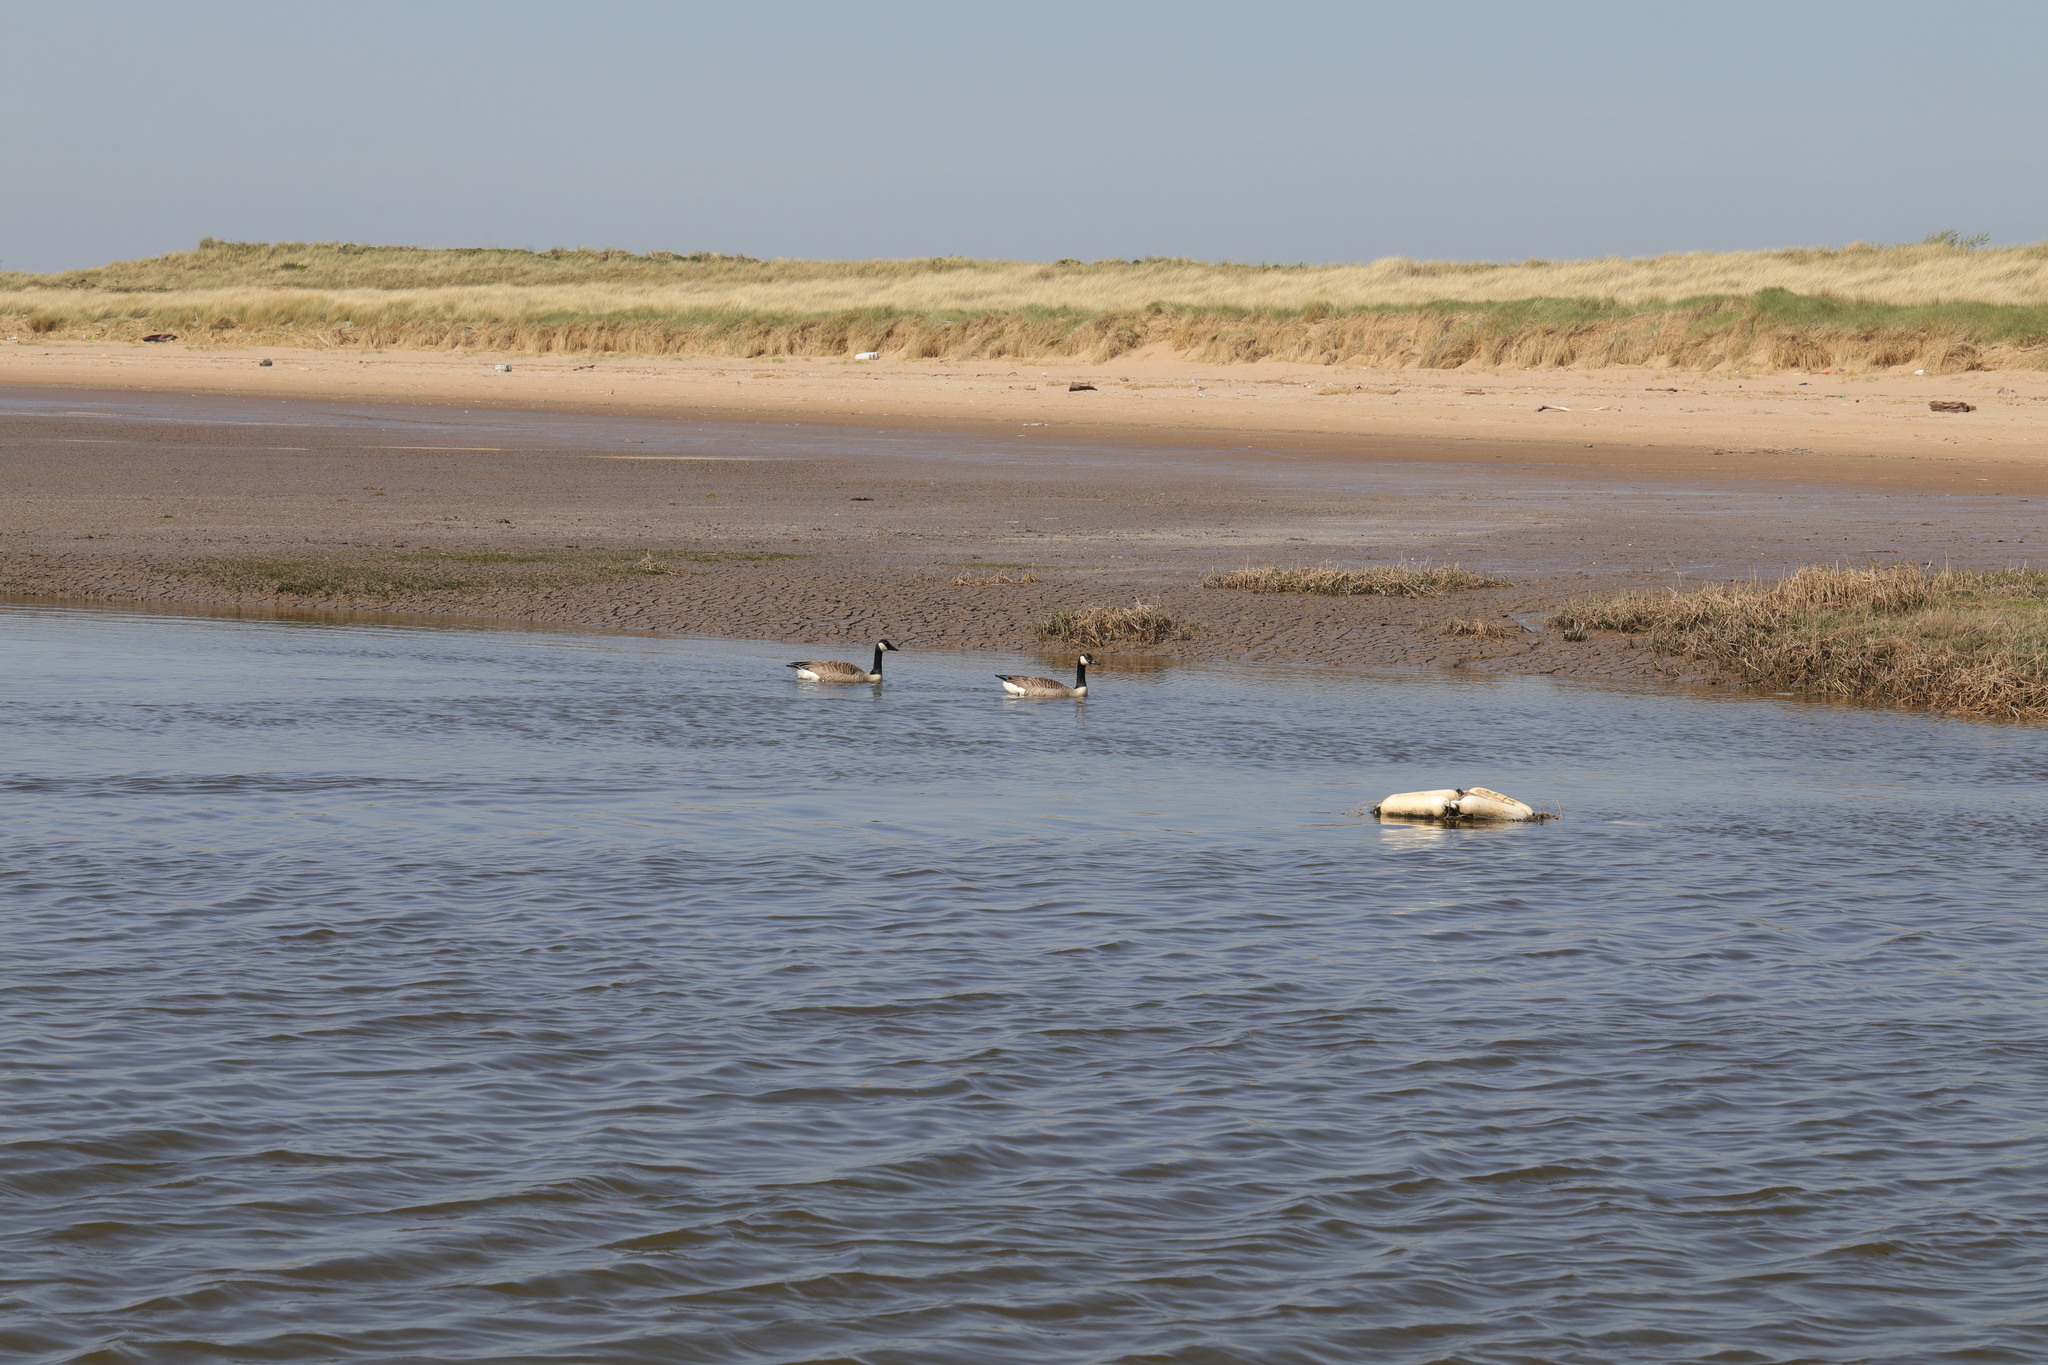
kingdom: Animalia
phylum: Chordata
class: Aves
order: Anseriformes
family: Anatidae
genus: Branta
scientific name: Branta canadensis
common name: Canada goose
